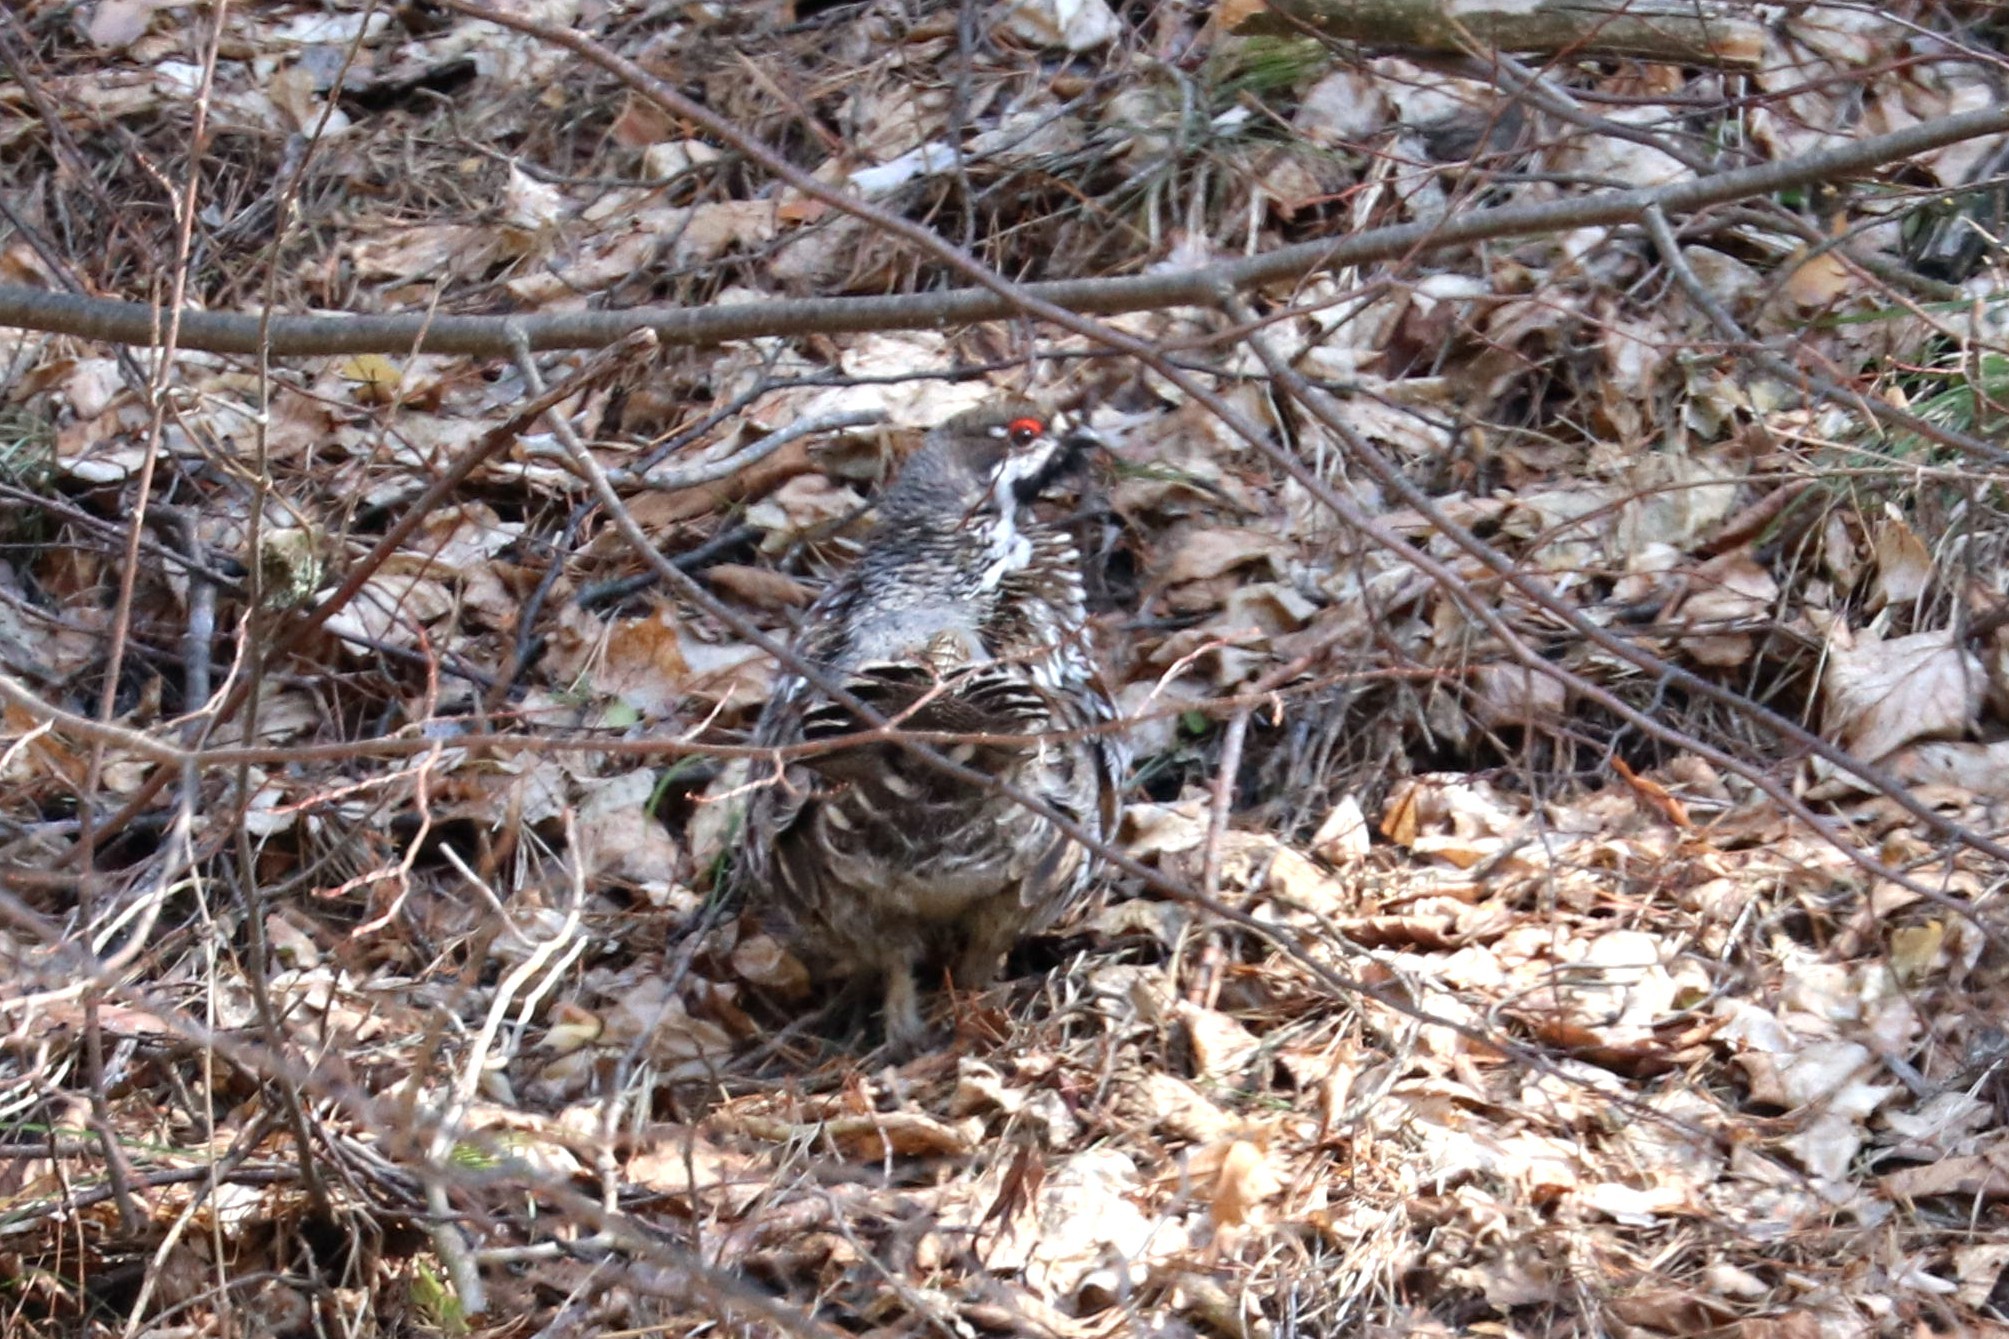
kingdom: Animalia
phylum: Chordata
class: Aves
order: Galliformes
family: Phasianidae
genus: Tetrastes
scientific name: Tetrastes bonasia
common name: Hazel grouse
